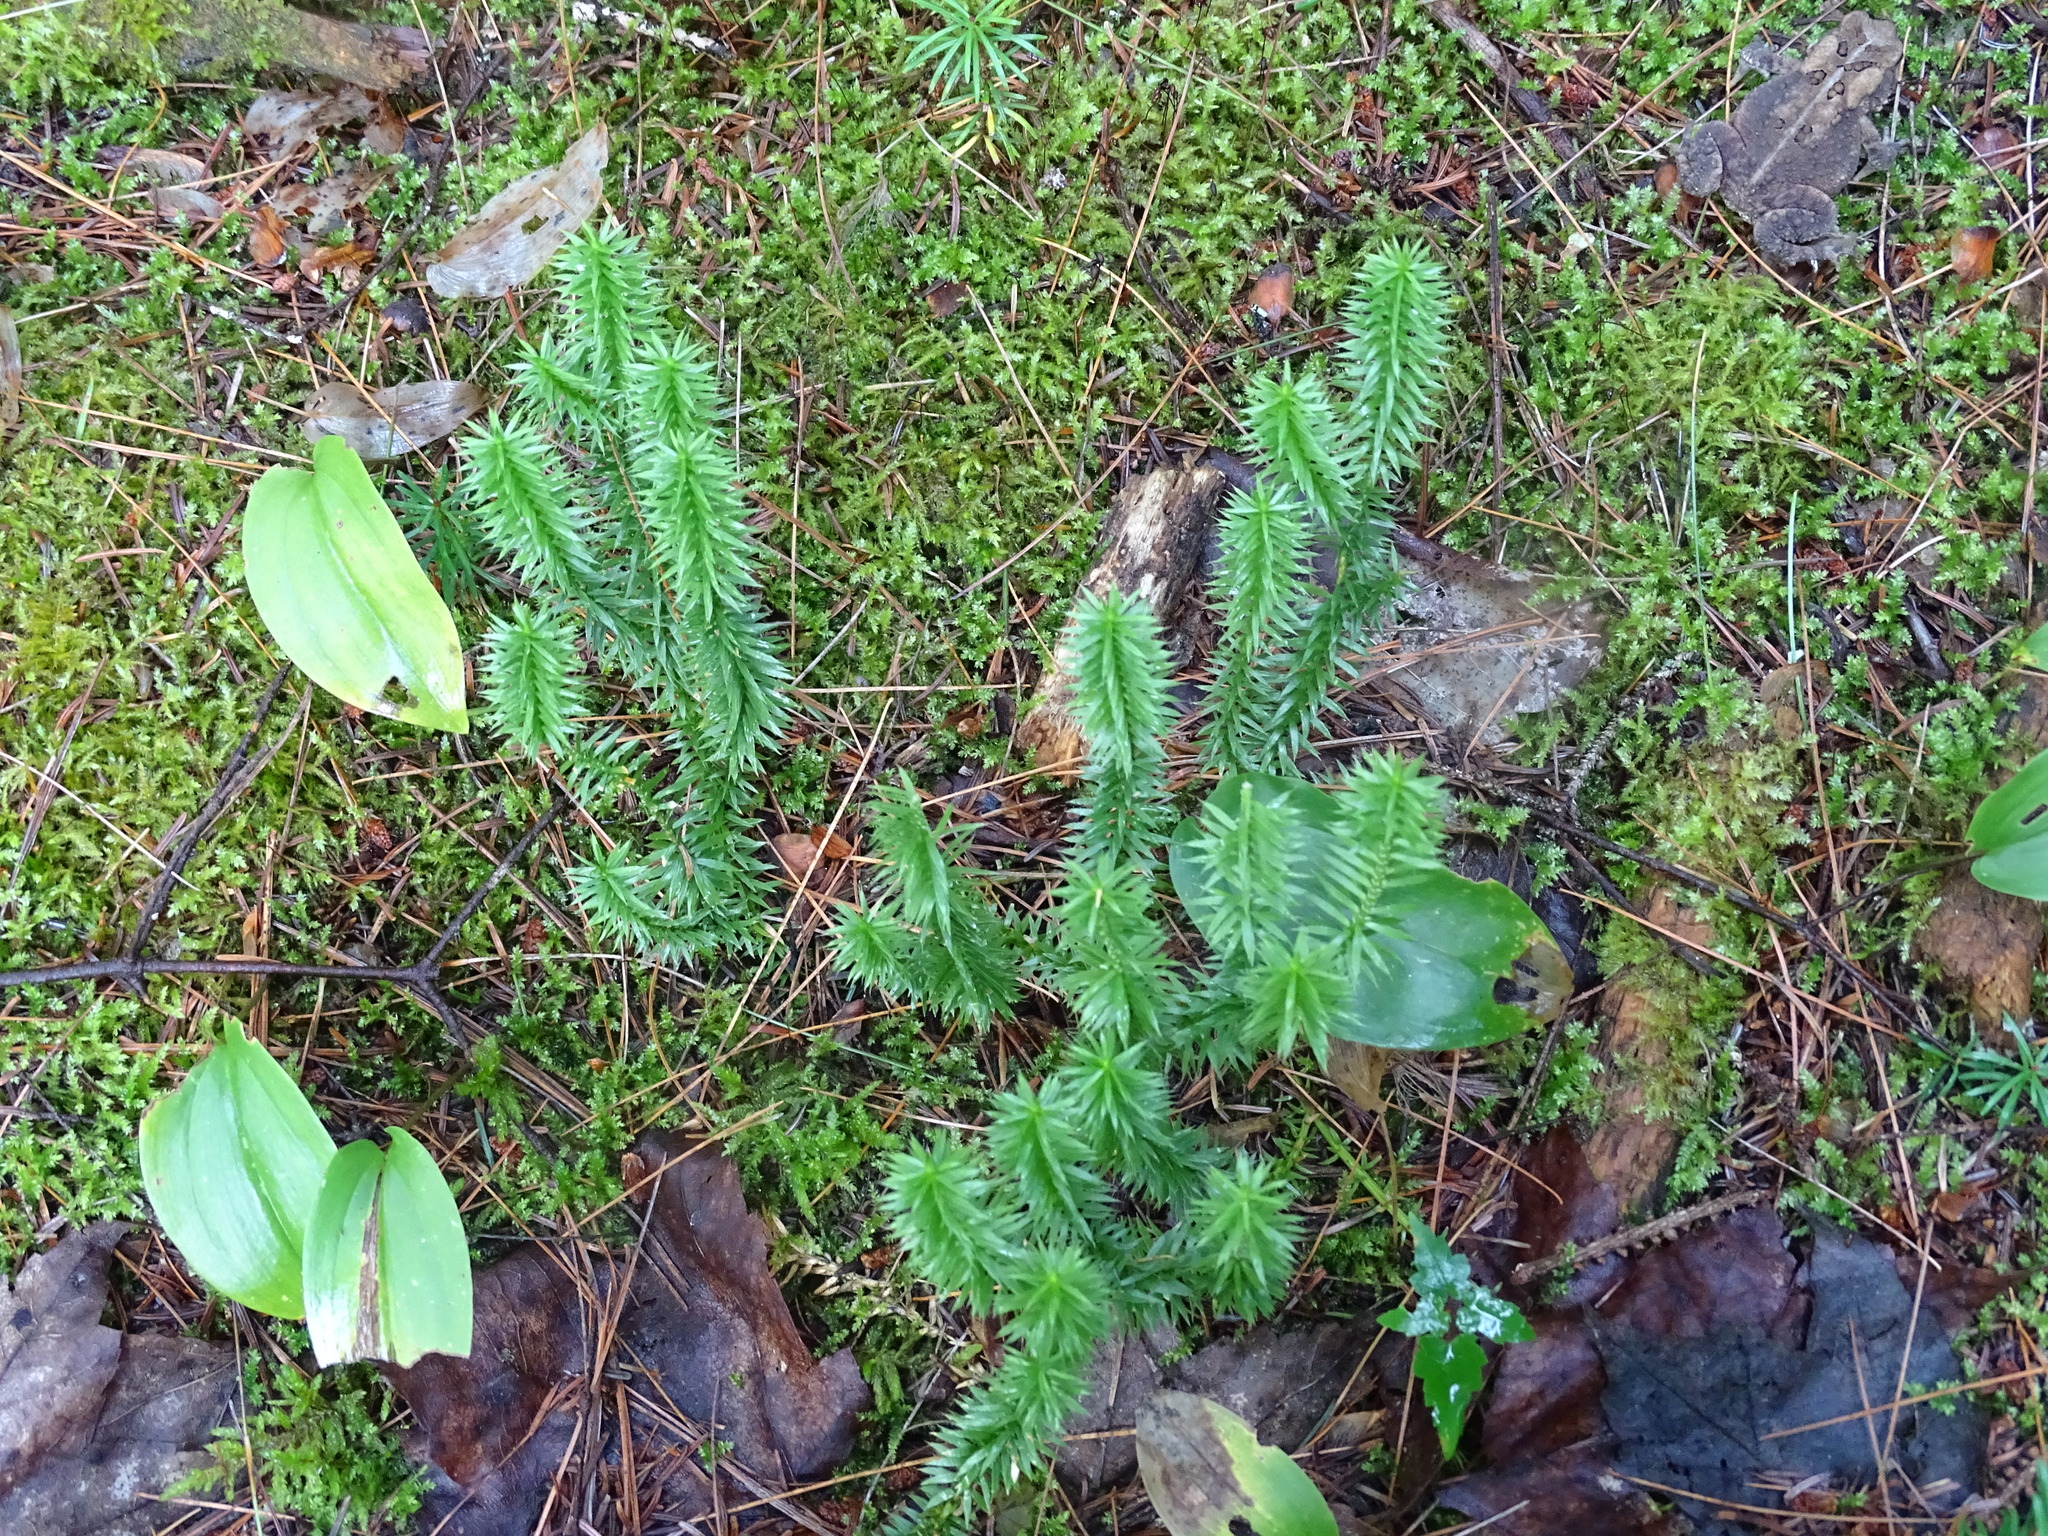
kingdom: Plantae
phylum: Tracheophyta
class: Lycopodiopsida
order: Lycopodiales
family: Lycopodiaceae
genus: Spinulum
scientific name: Spinulum annotinum
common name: Interrupted club-moss
